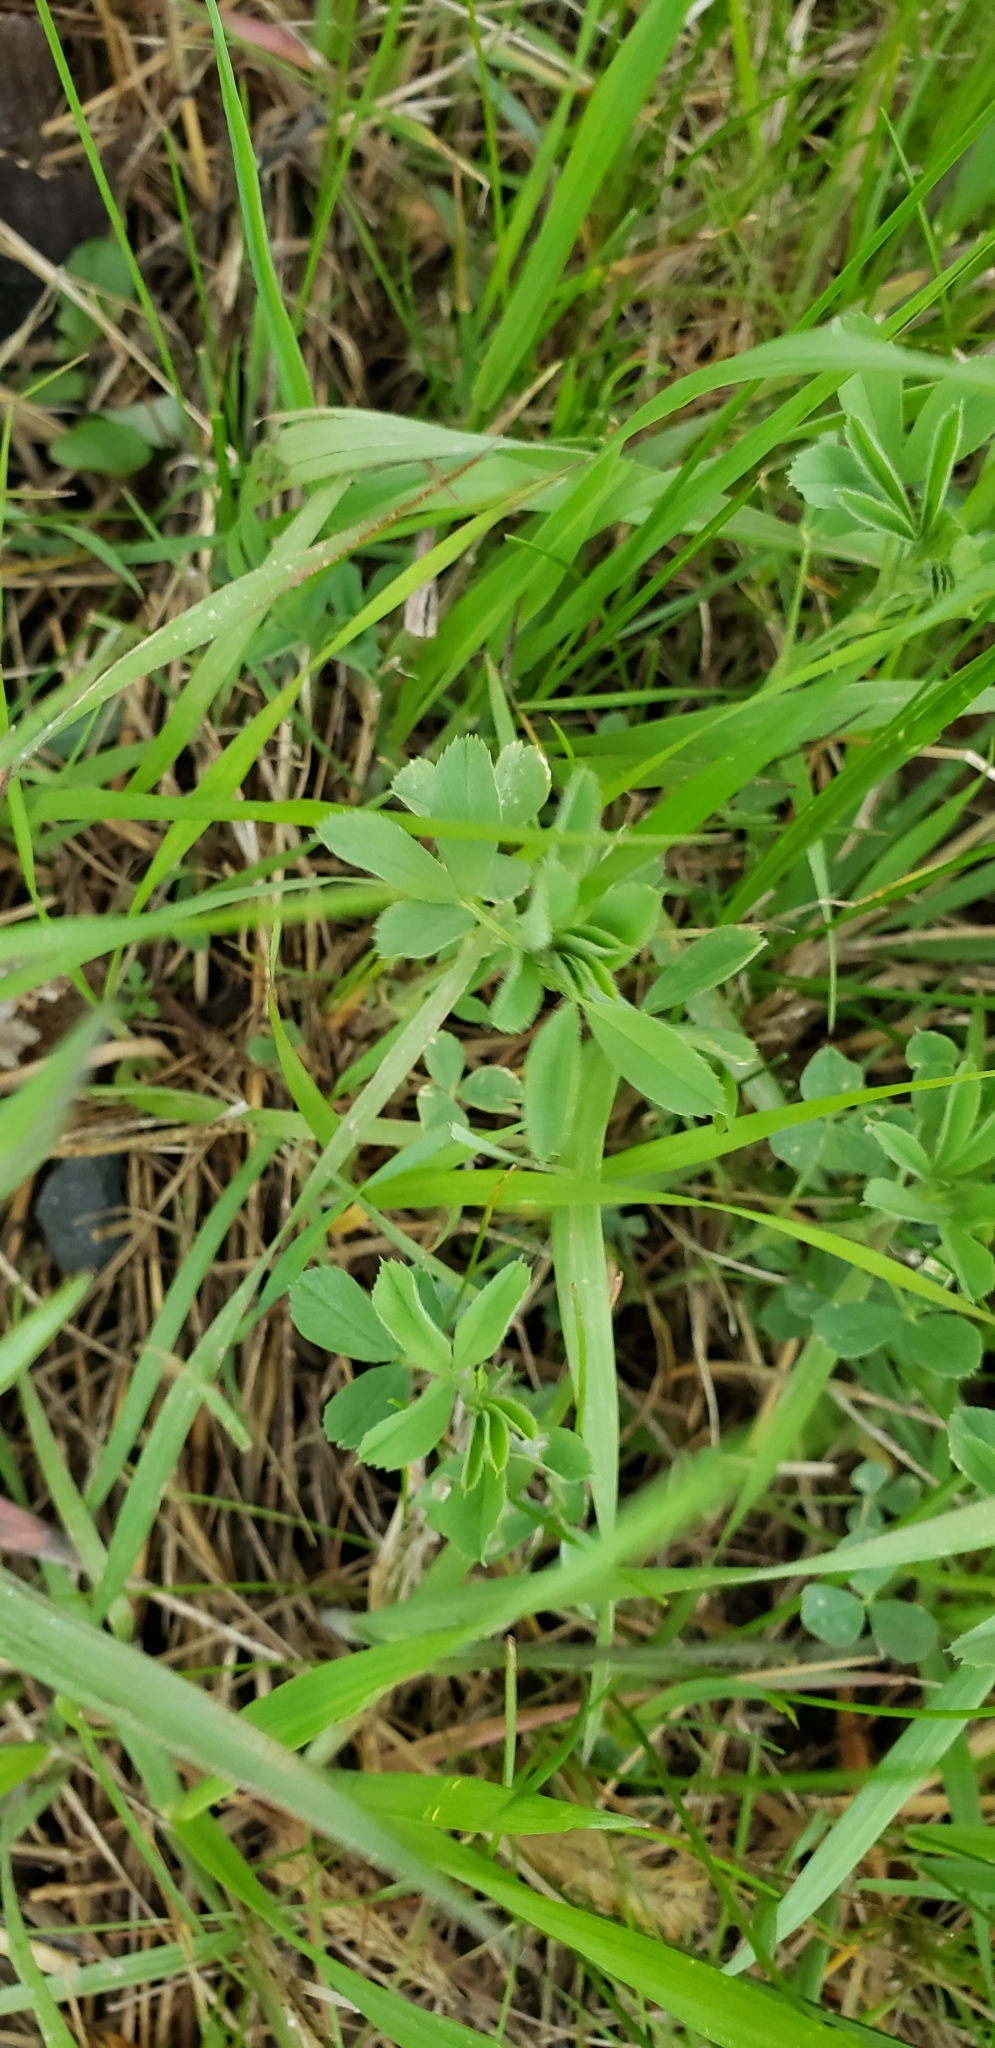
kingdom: Plantae
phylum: Tracheophyta
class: Magnoliopsida
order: Fabales
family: Fabaceae
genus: Medicago
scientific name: Medicago sativa
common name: Alfalfa
